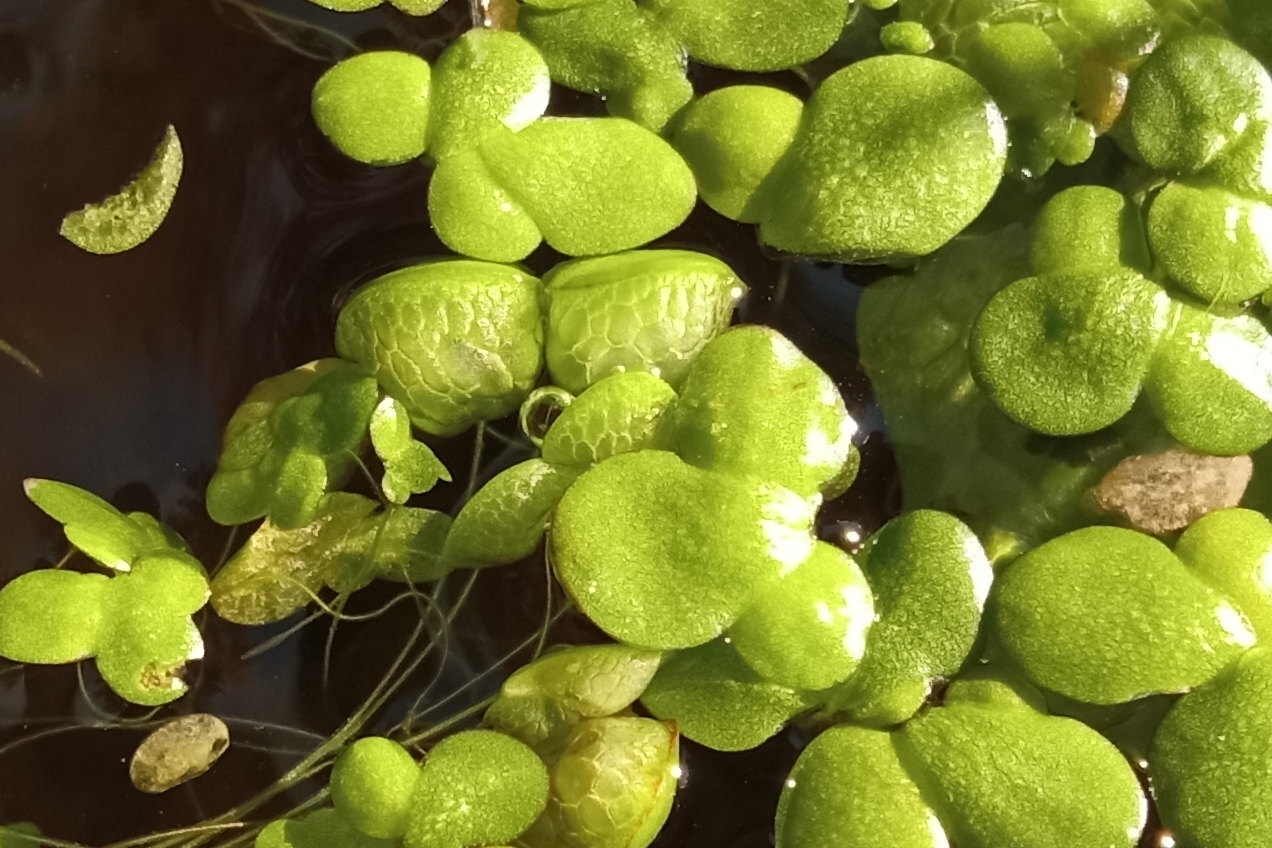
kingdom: Plantae
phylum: Tracheophyta
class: Liliopsida
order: Alismatales
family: Araceae
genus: Lemna
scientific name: Lemna gibba
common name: Fat duckweed
